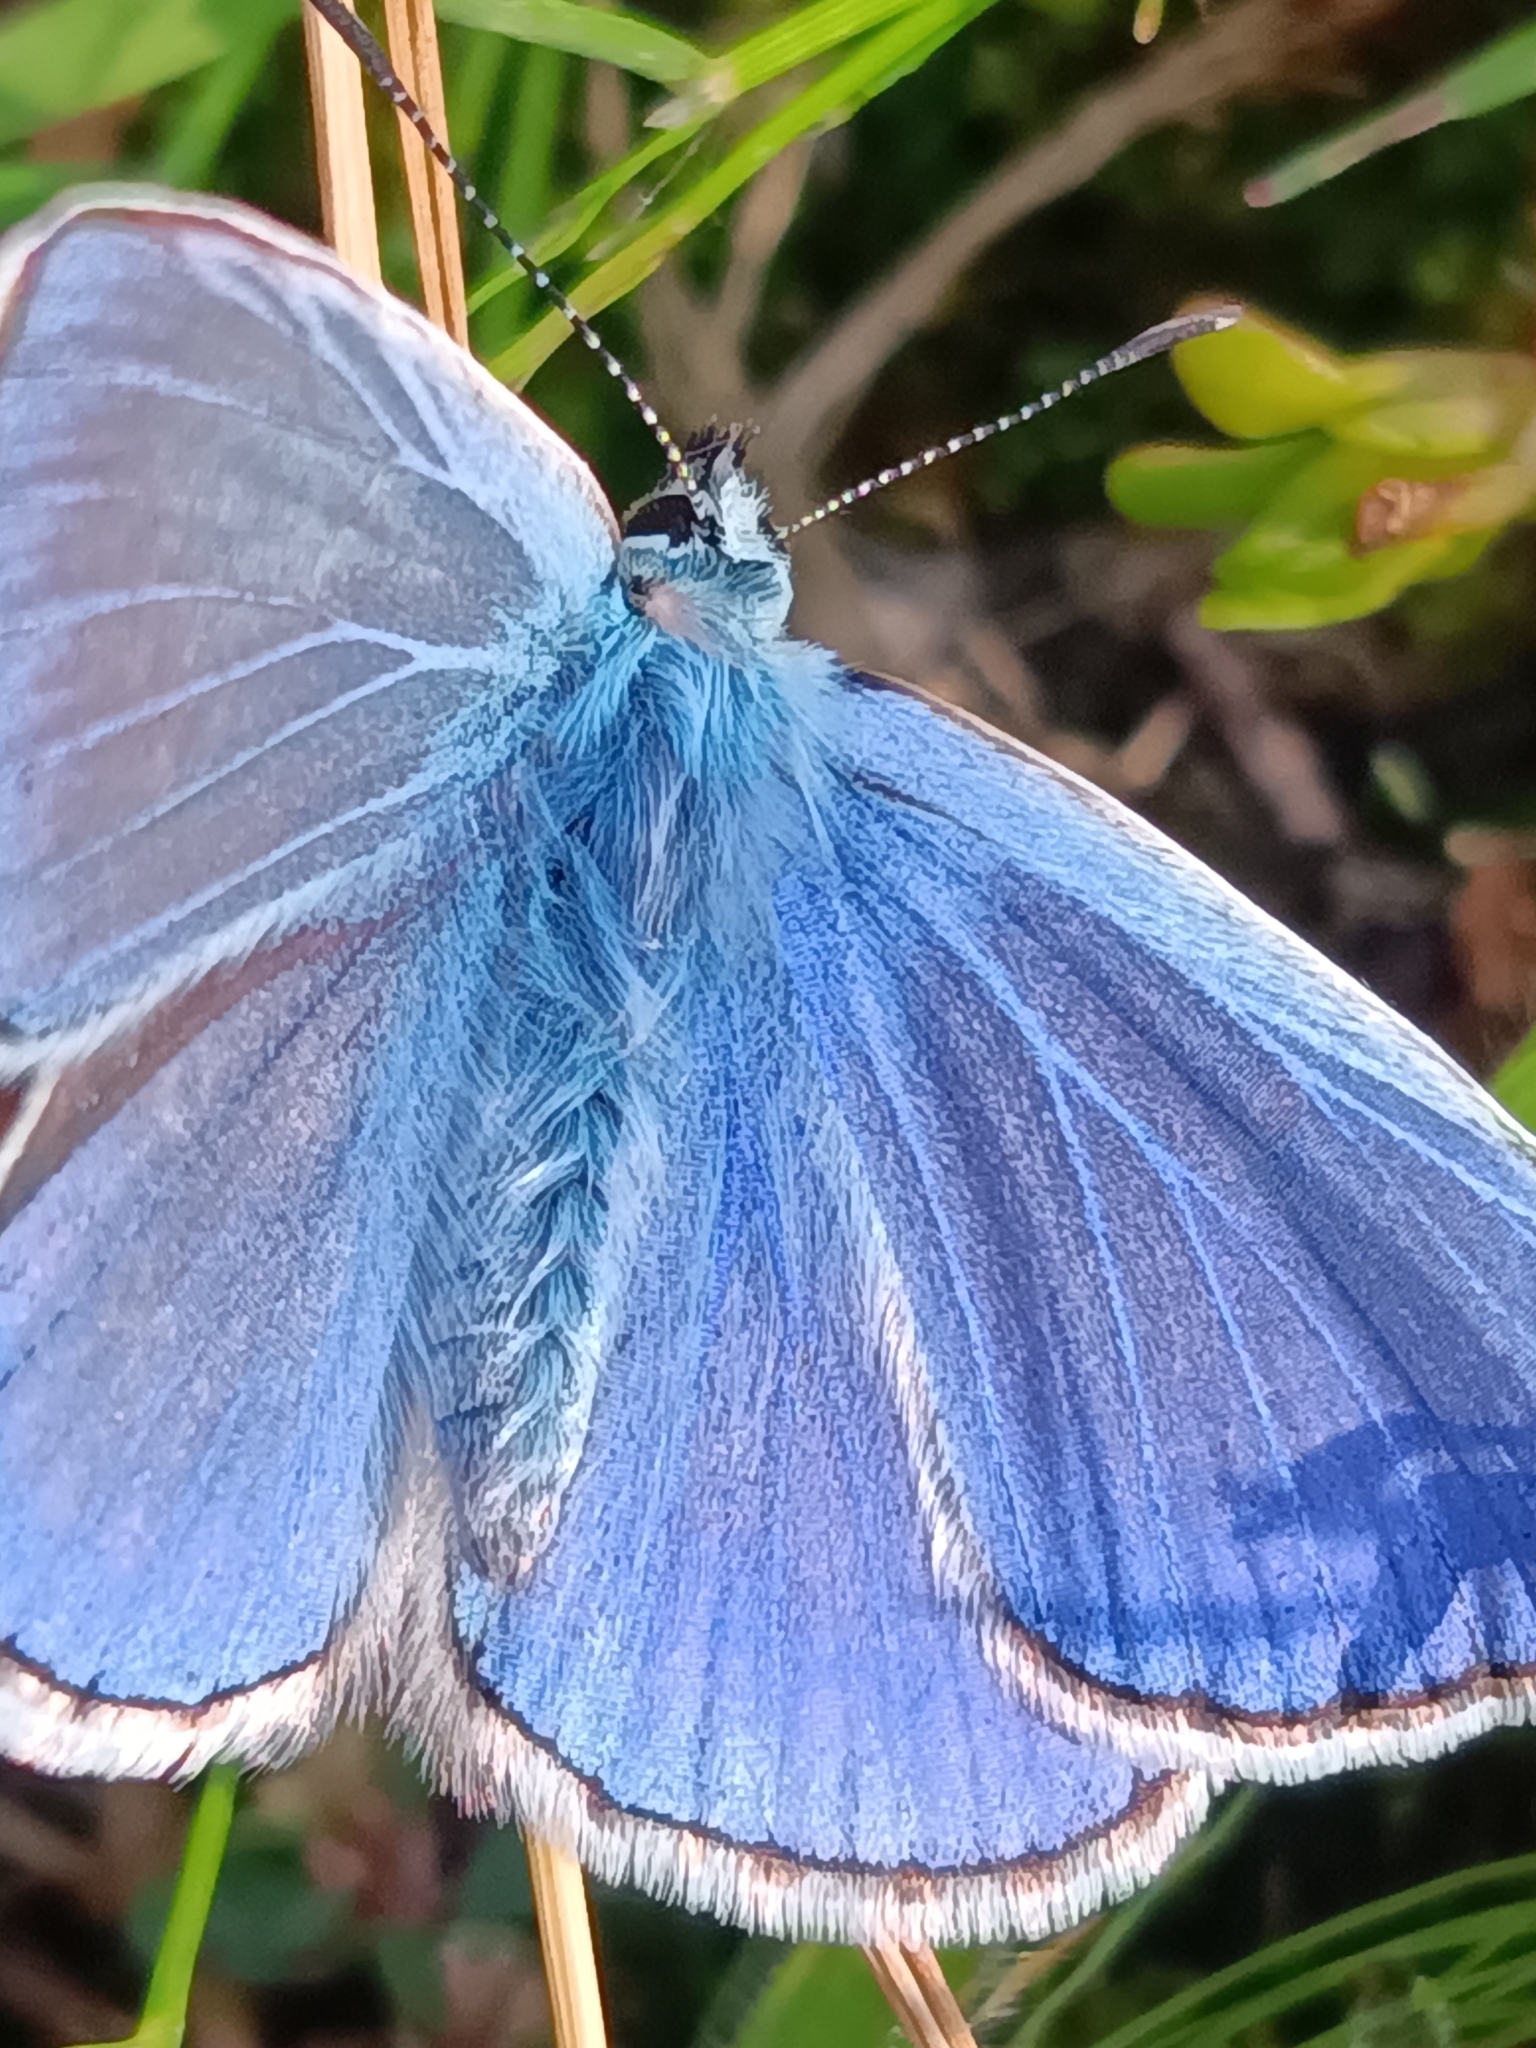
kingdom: Animalia
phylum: Arthropoda
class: Insecta
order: Lepidoptera
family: Lycaenidae
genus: Polyommatus
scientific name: Polyommatus icarus
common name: Common blue
